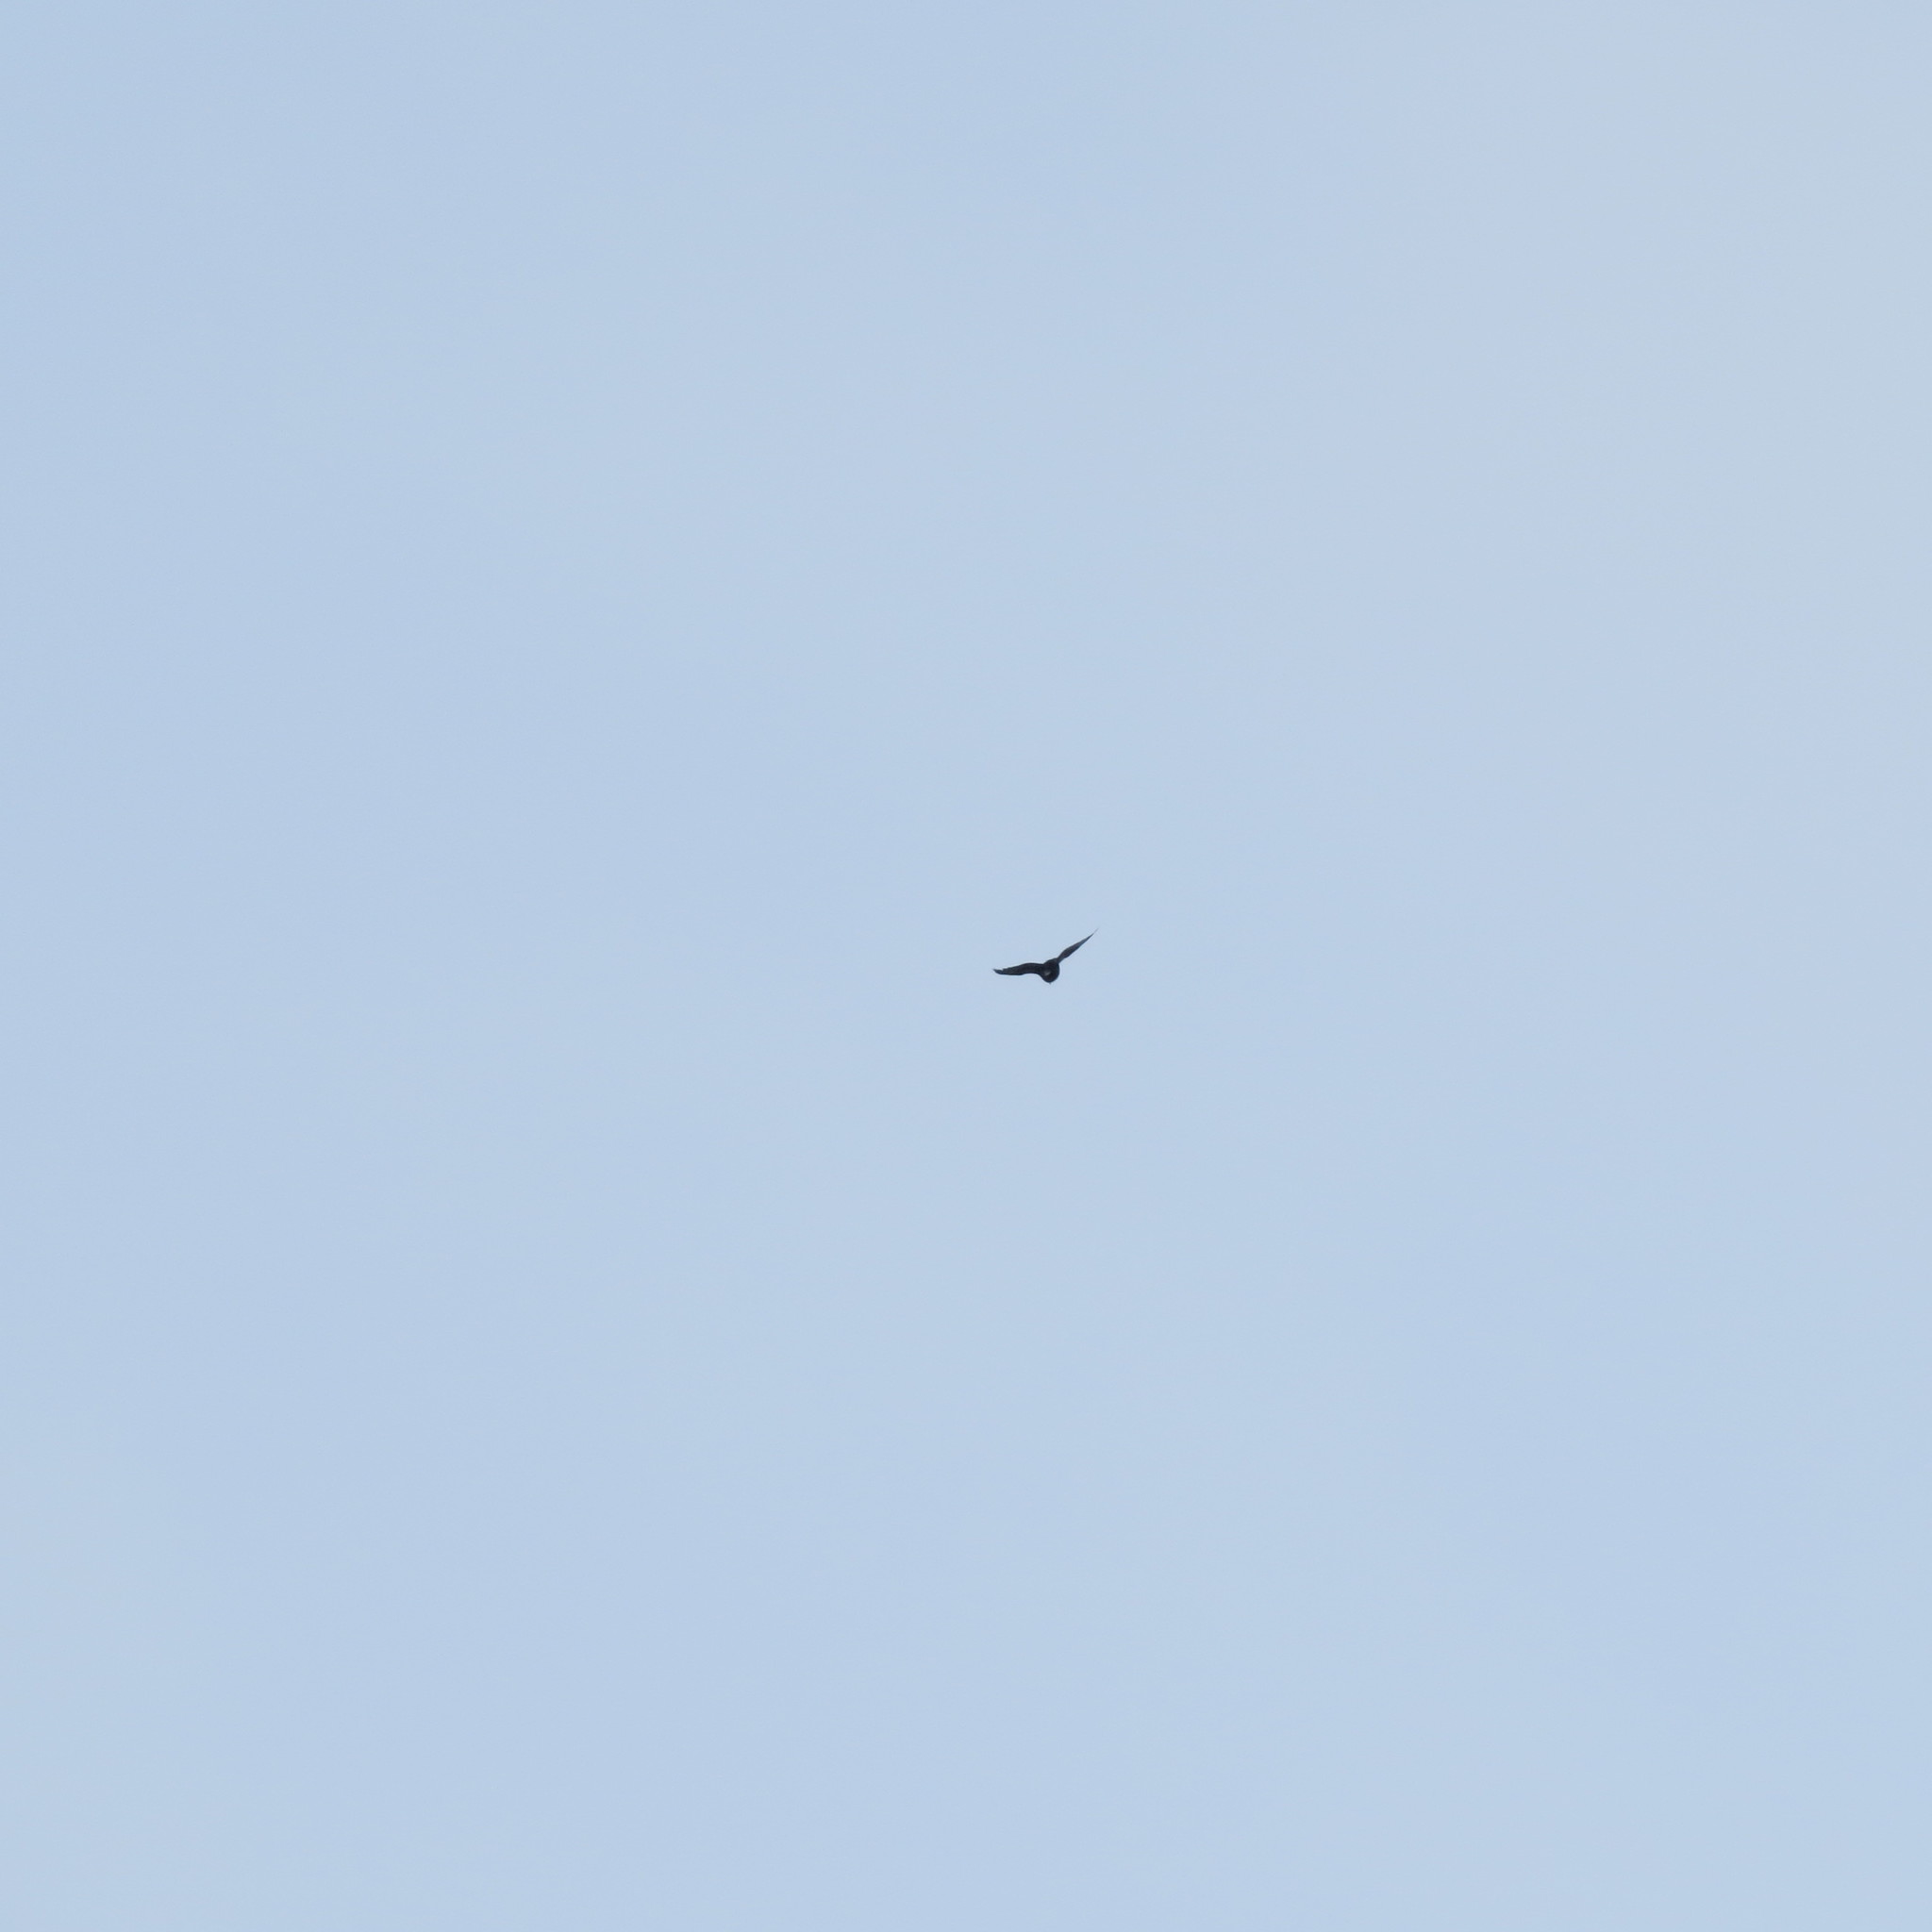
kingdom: Animalia
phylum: Chordata
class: Aves
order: Passeriformes
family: Corvidae
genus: Corvus
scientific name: Corvus corax
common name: Common raven
